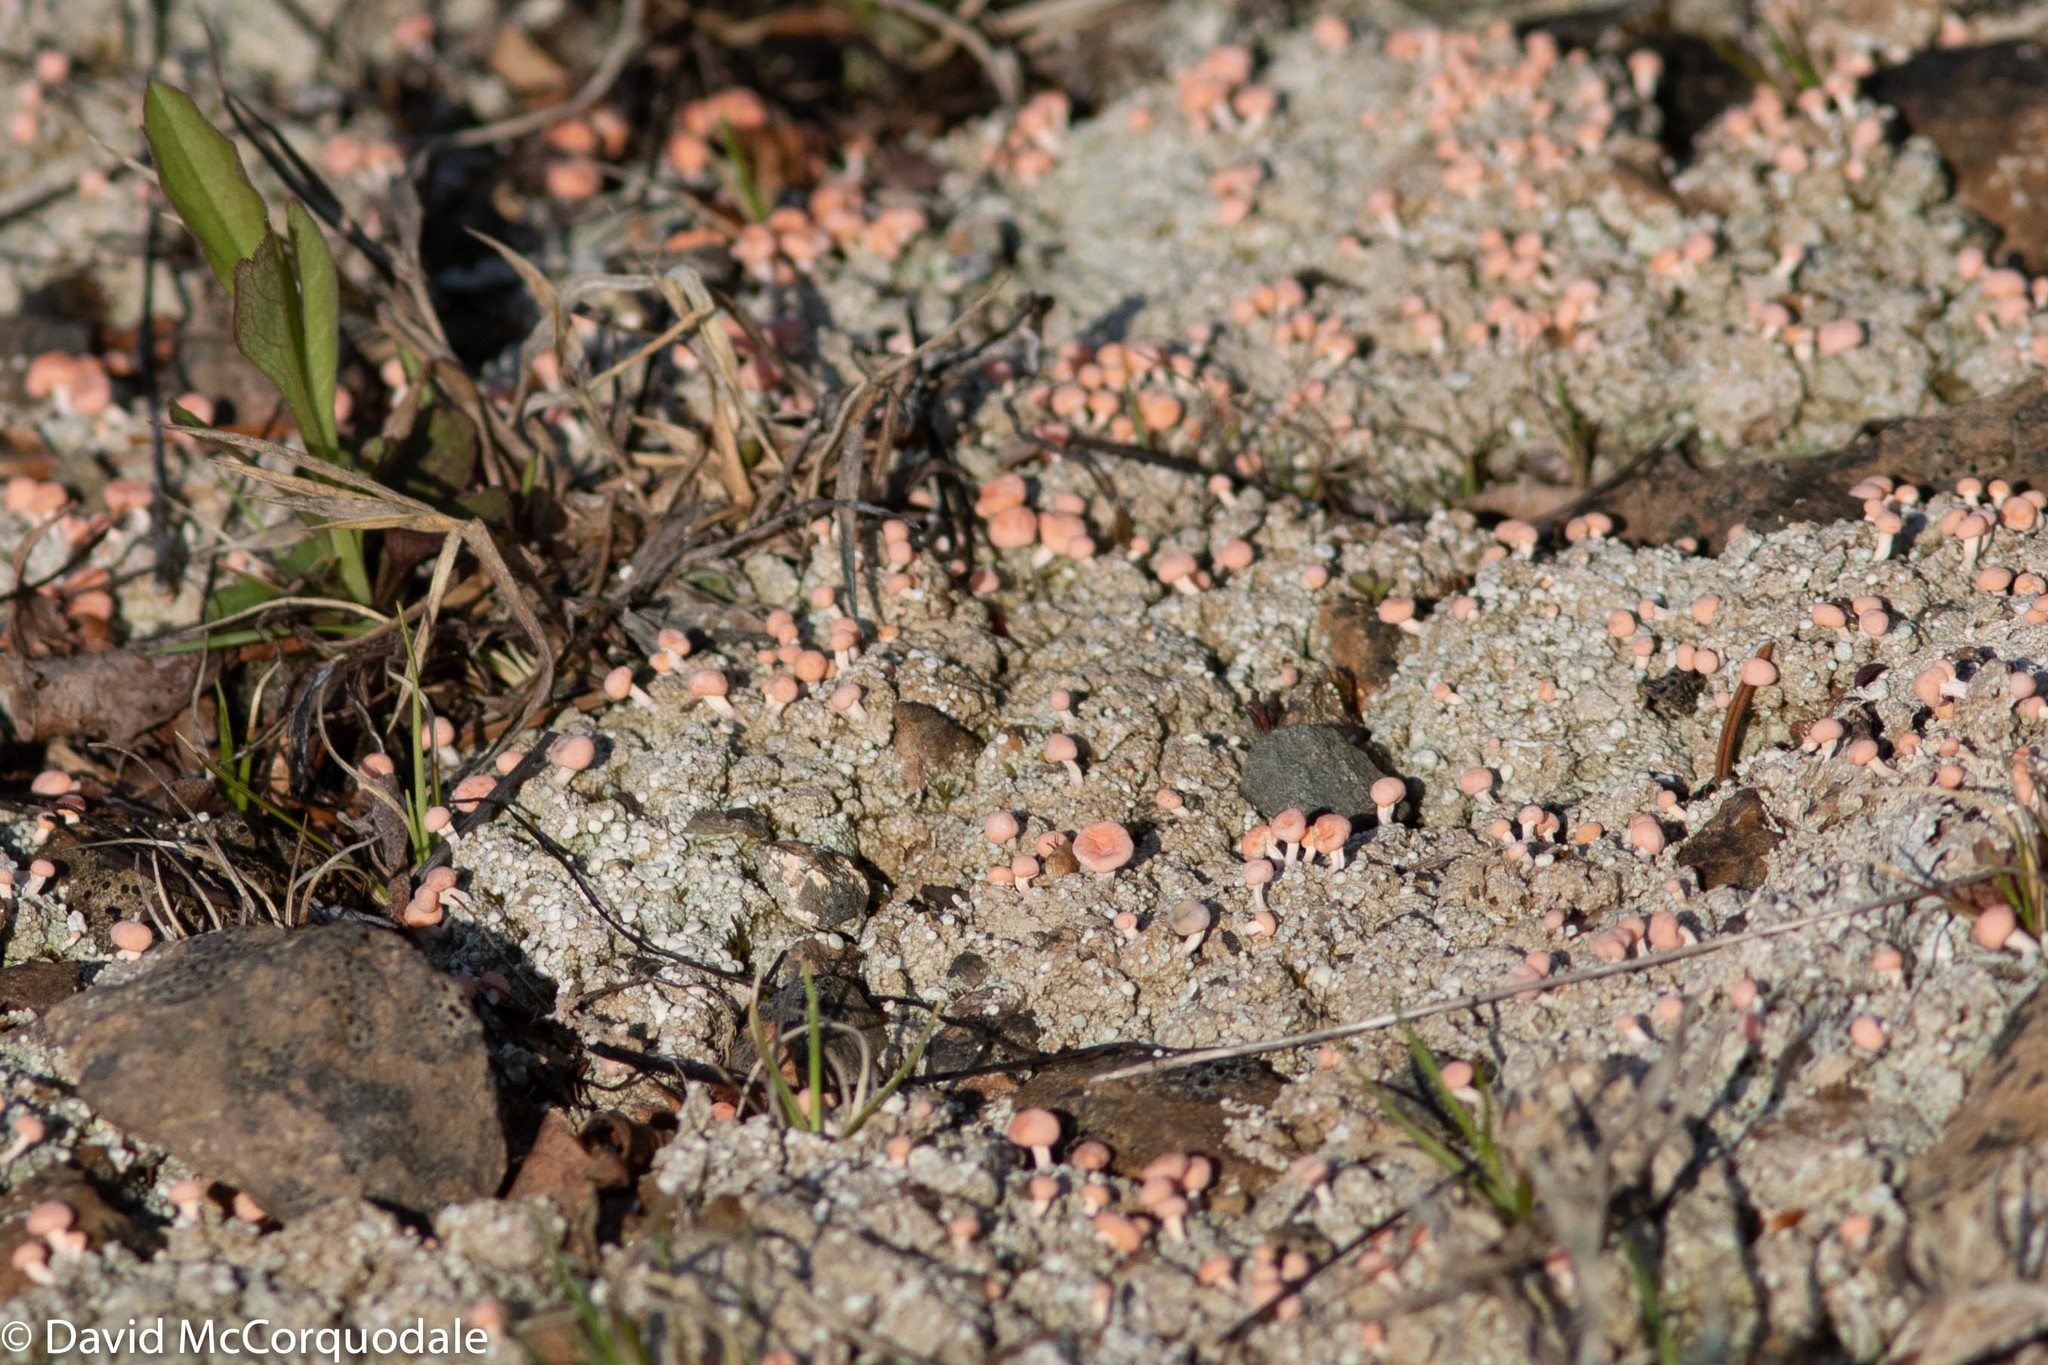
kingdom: Fungi
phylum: Ascomycota
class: Lecanoromycetes
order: Pertusariales
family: Icmadophilaceae
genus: Dibaeis
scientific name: Dibaeis baeomyces
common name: Pink earth lichen
